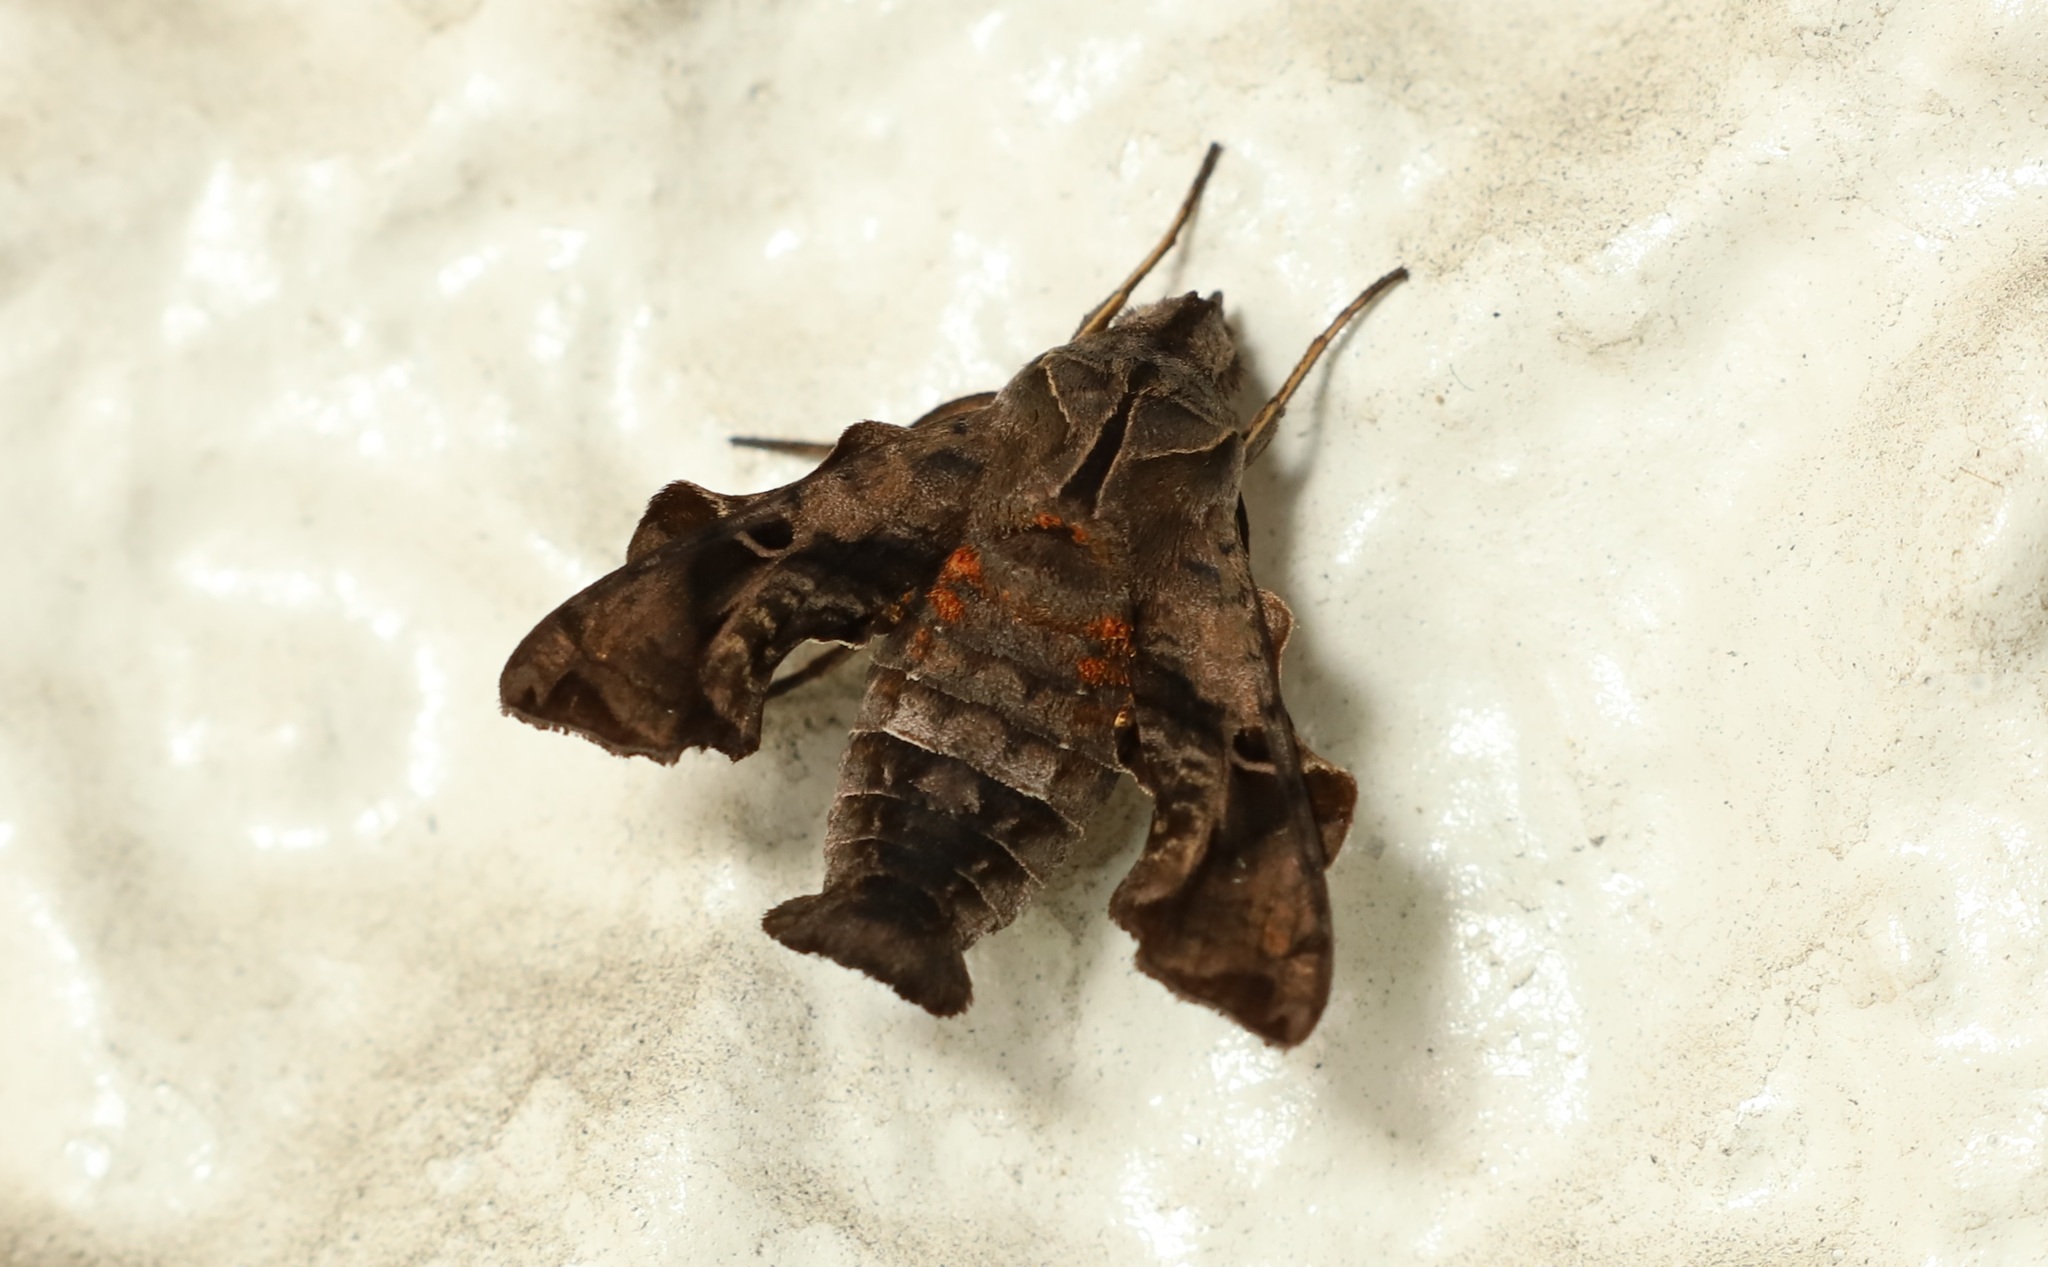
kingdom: Animalia
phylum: Arthropoda
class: Insecta
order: Lepidoptera
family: Sphingidae
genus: Neogurelca
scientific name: Neogurelca himachala
